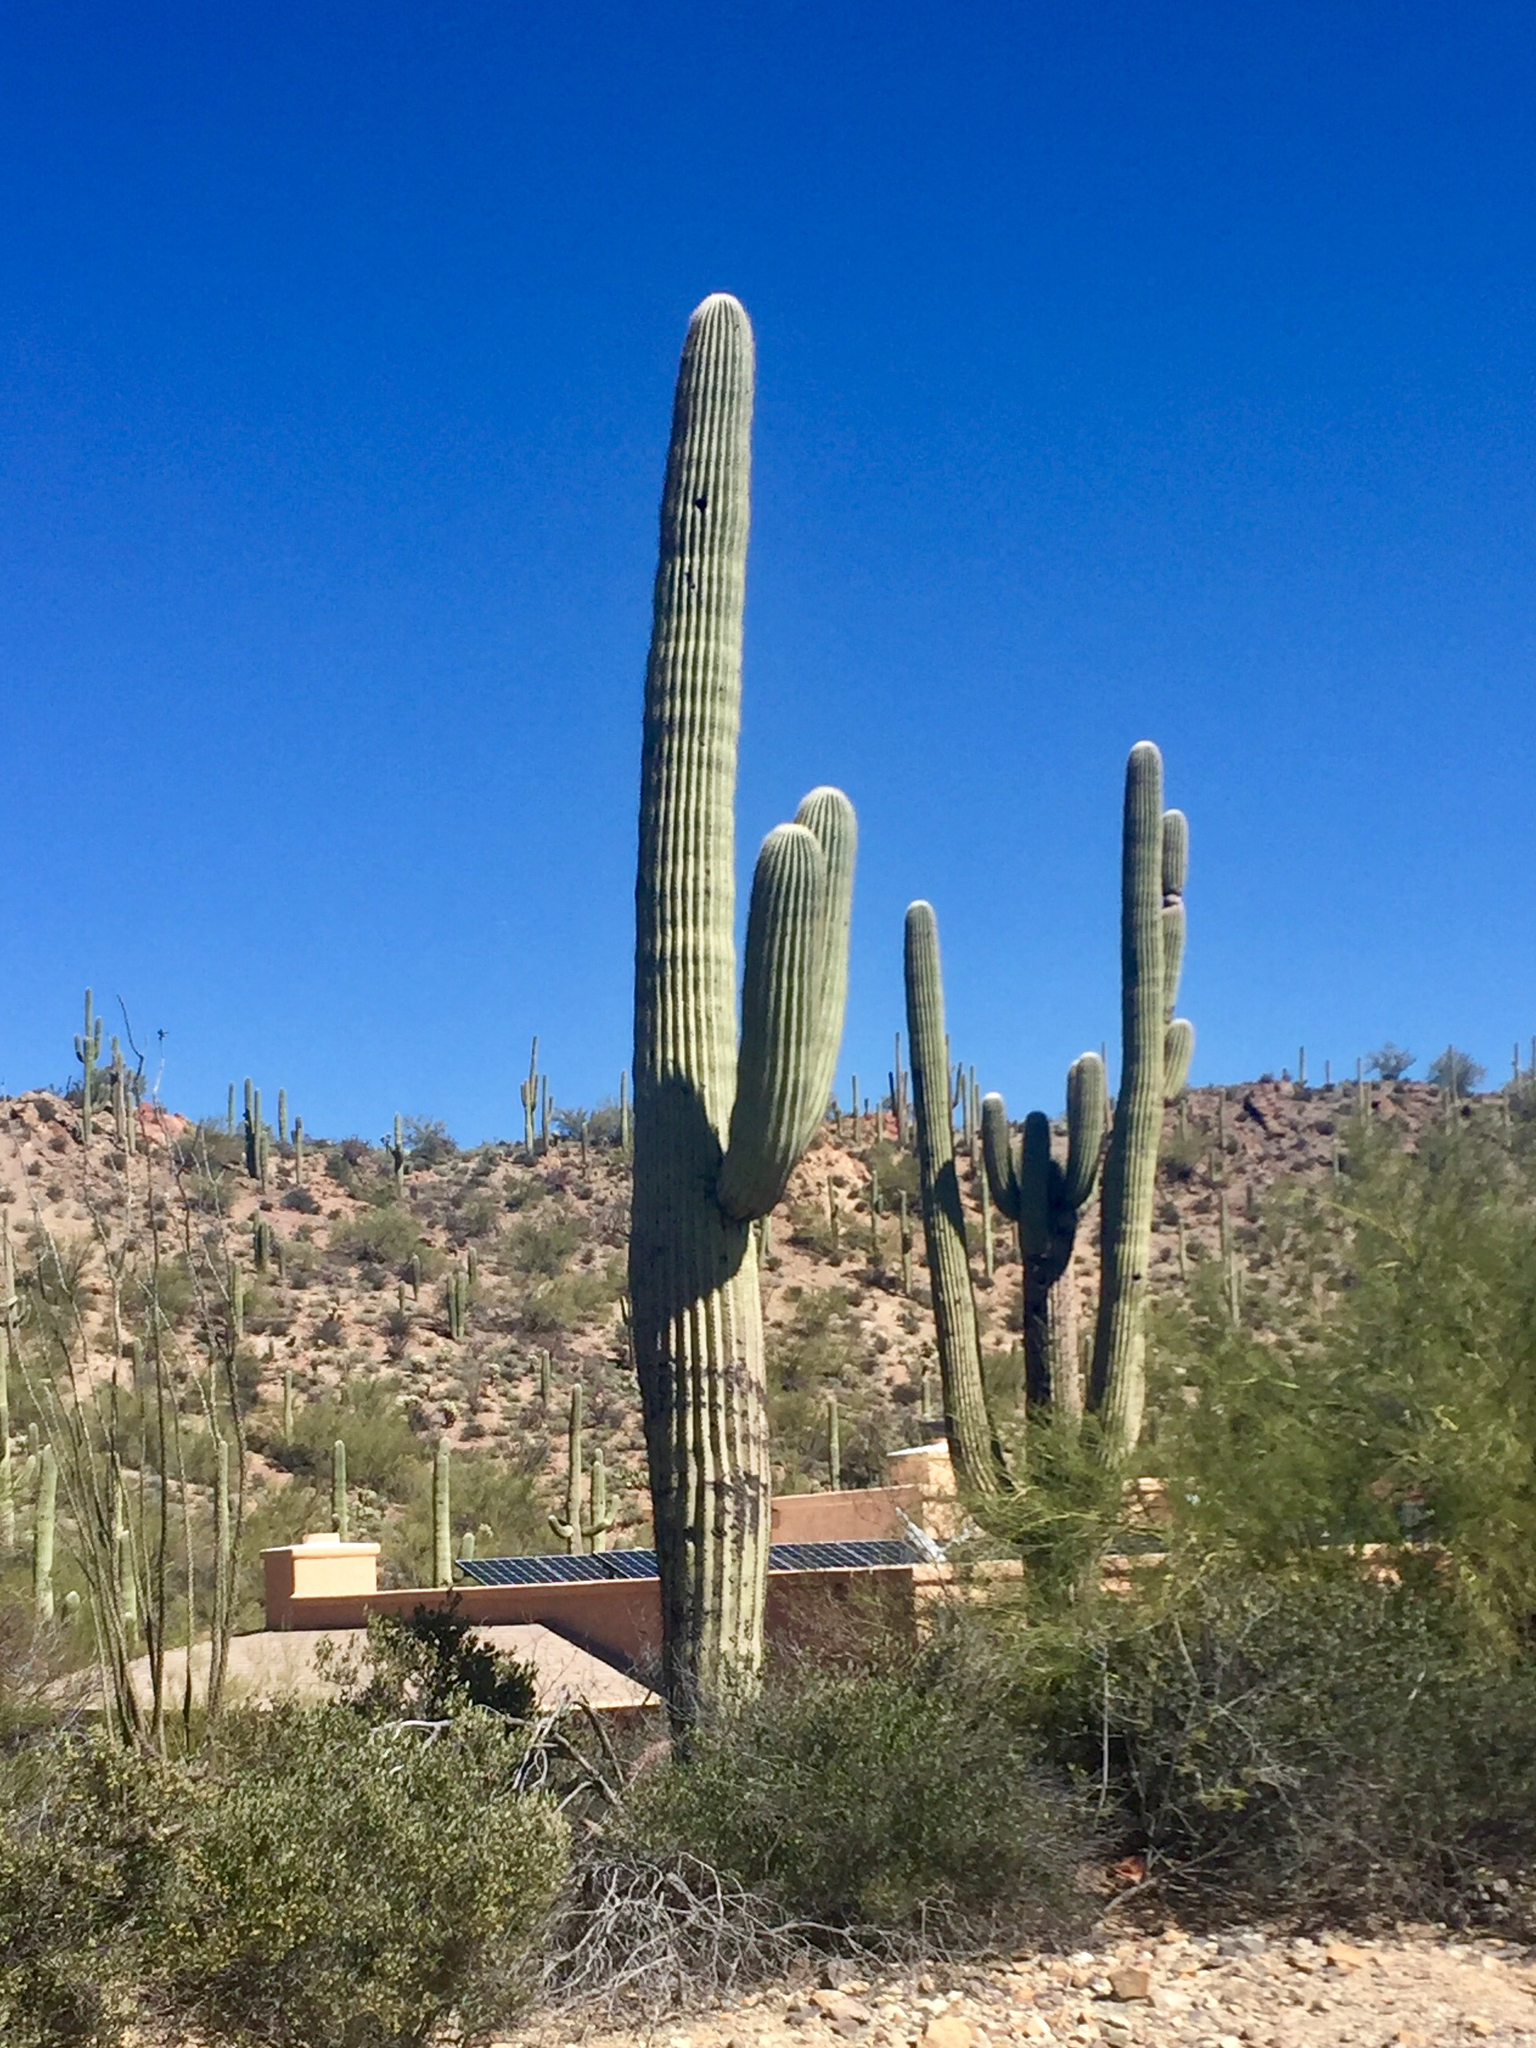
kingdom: Plantae
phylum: Tracheophyta
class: Magnoliopsida
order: Caryophyllales
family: Cactaceae
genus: Carnegiea
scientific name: Carnegiea gigantea
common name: Saguaro
